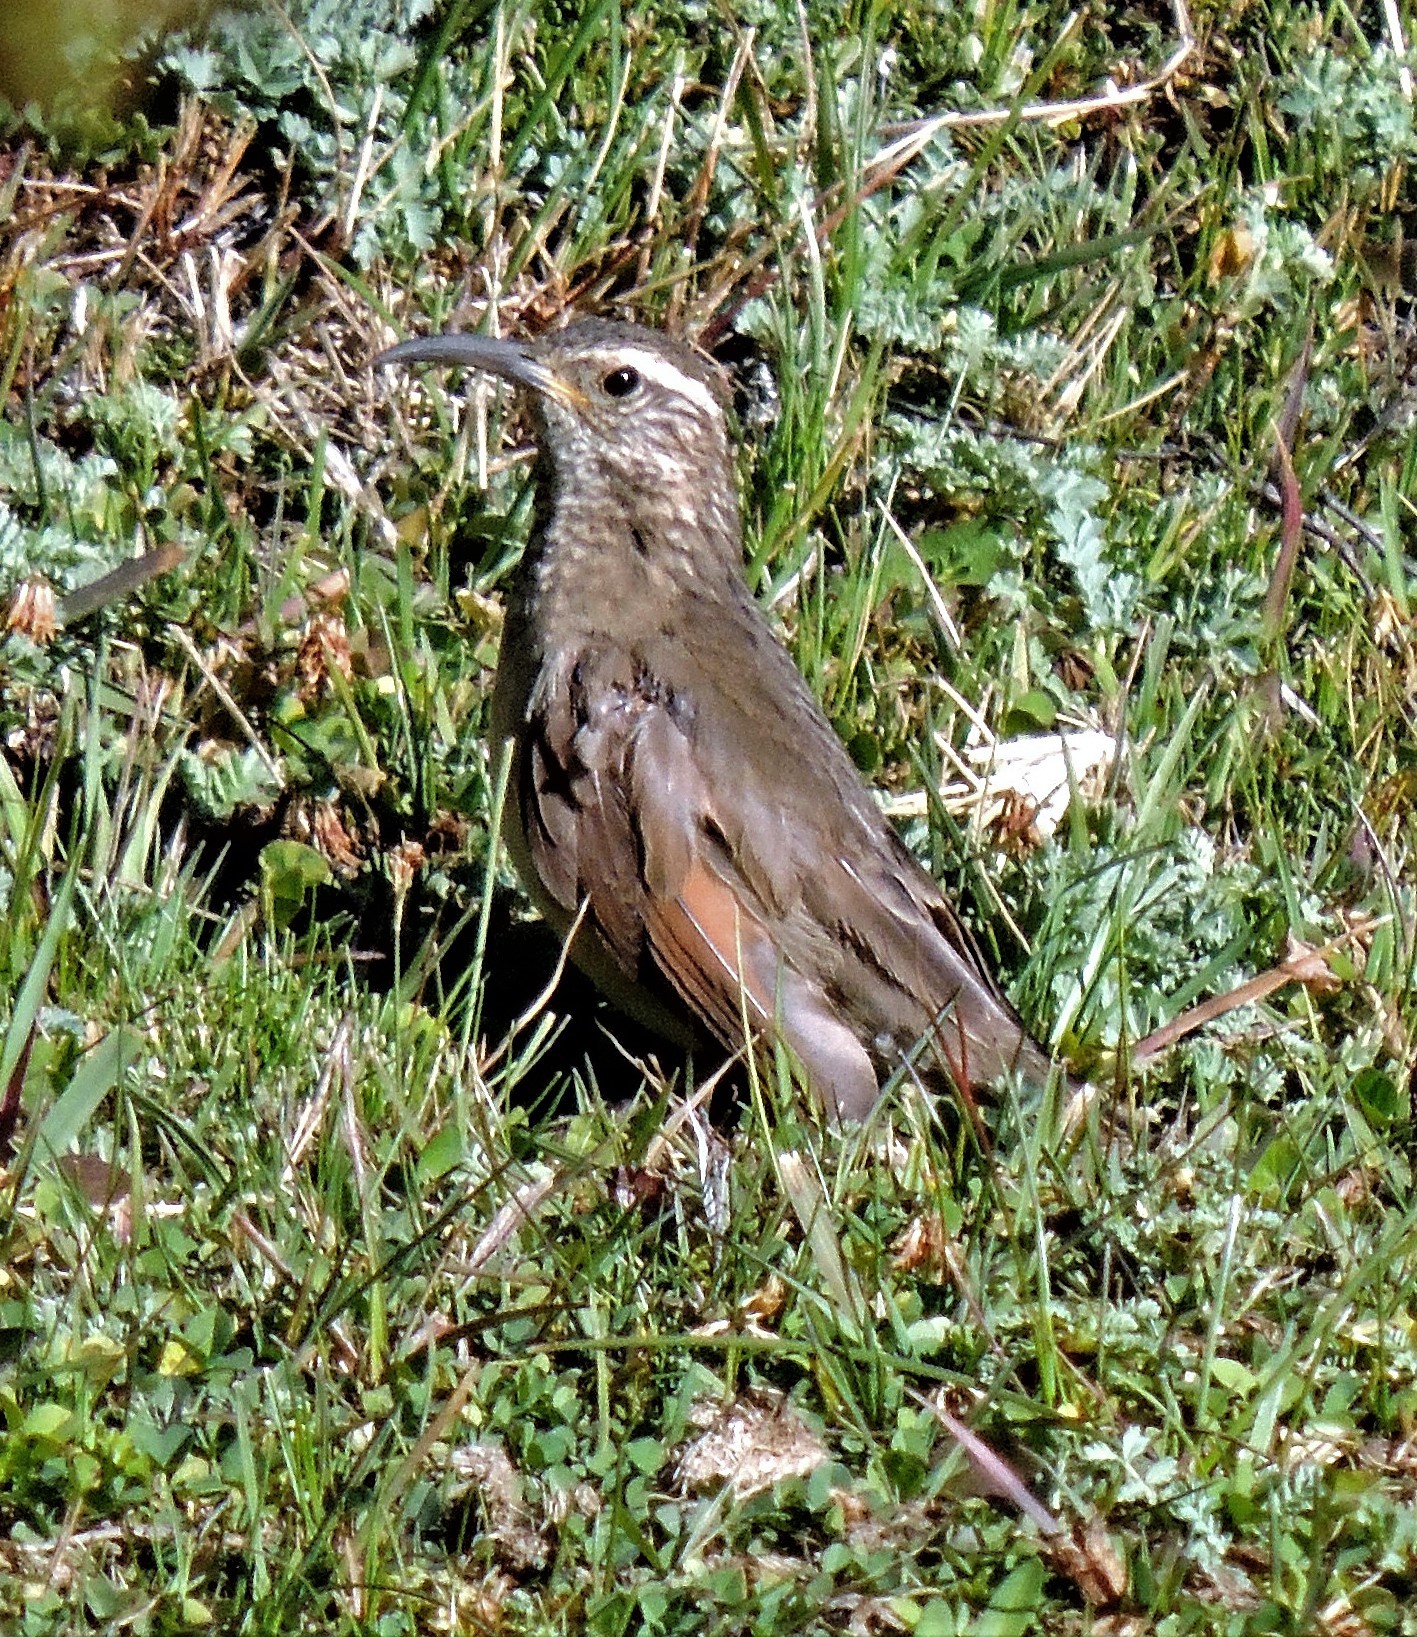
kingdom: Animalia
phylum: Chordata
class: Aves
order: Passeriformes
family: Furnariidae
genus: Upucerthia
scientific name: Upucerthia dumetaria
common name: Scale-throated earthcreeper
